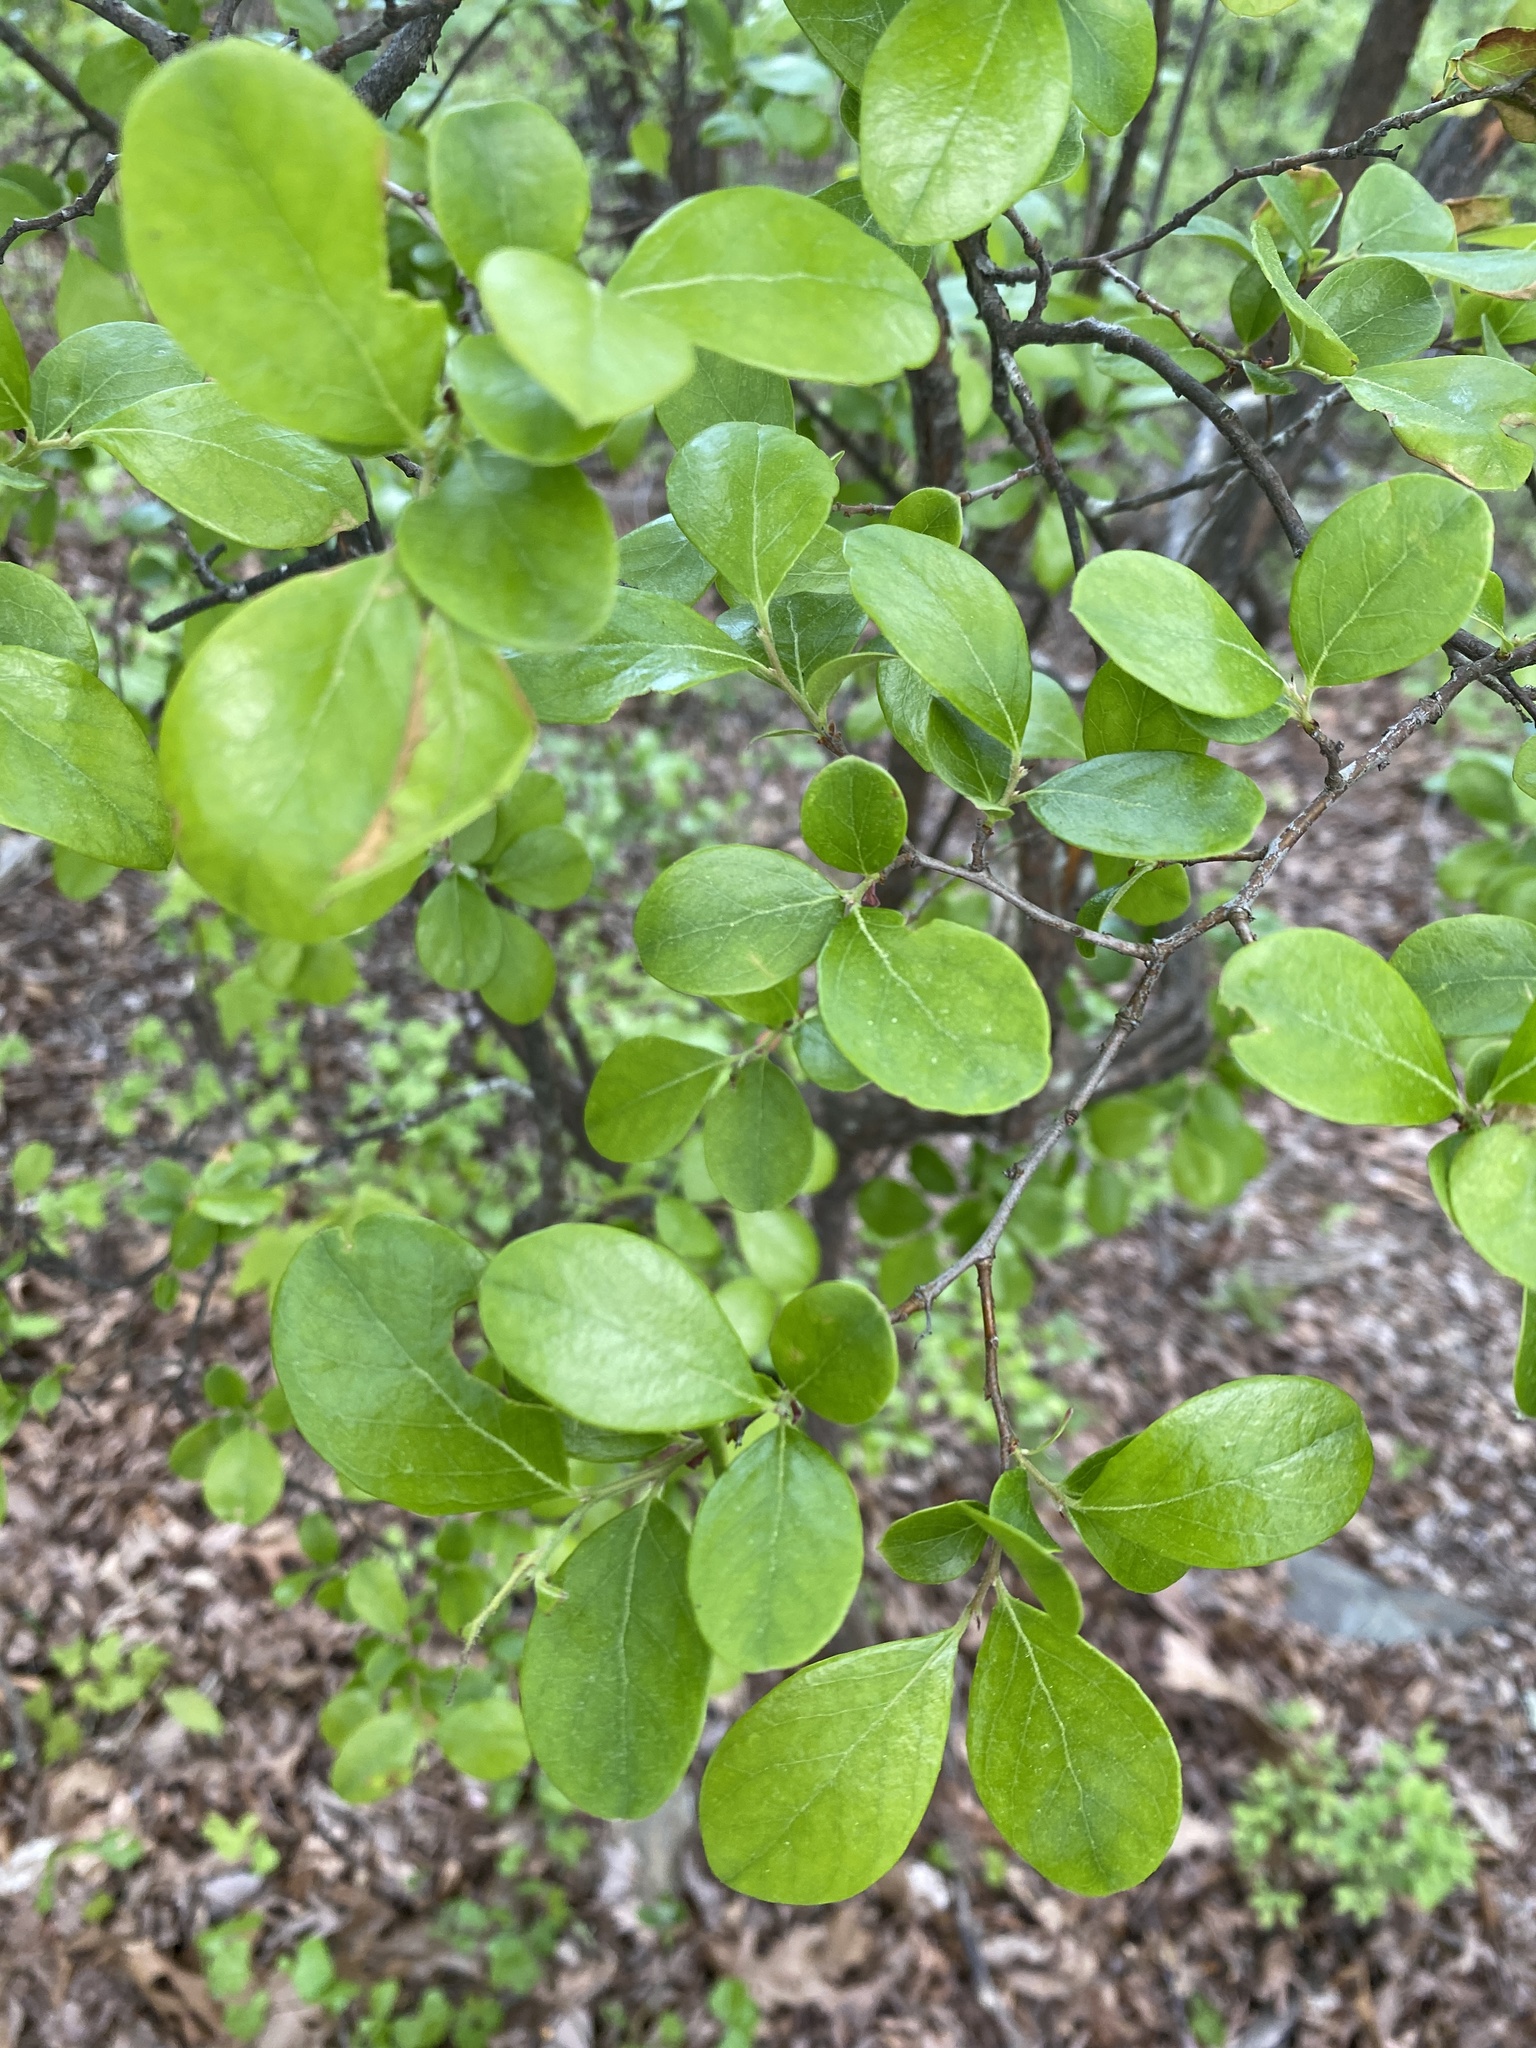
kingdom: Plantae
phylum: Tracheophyta
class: Magnoliopsida
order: Ericales
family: Ericaceae
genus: Vaccinium
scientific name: Vaccinium arboreum
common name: Farkleberry
